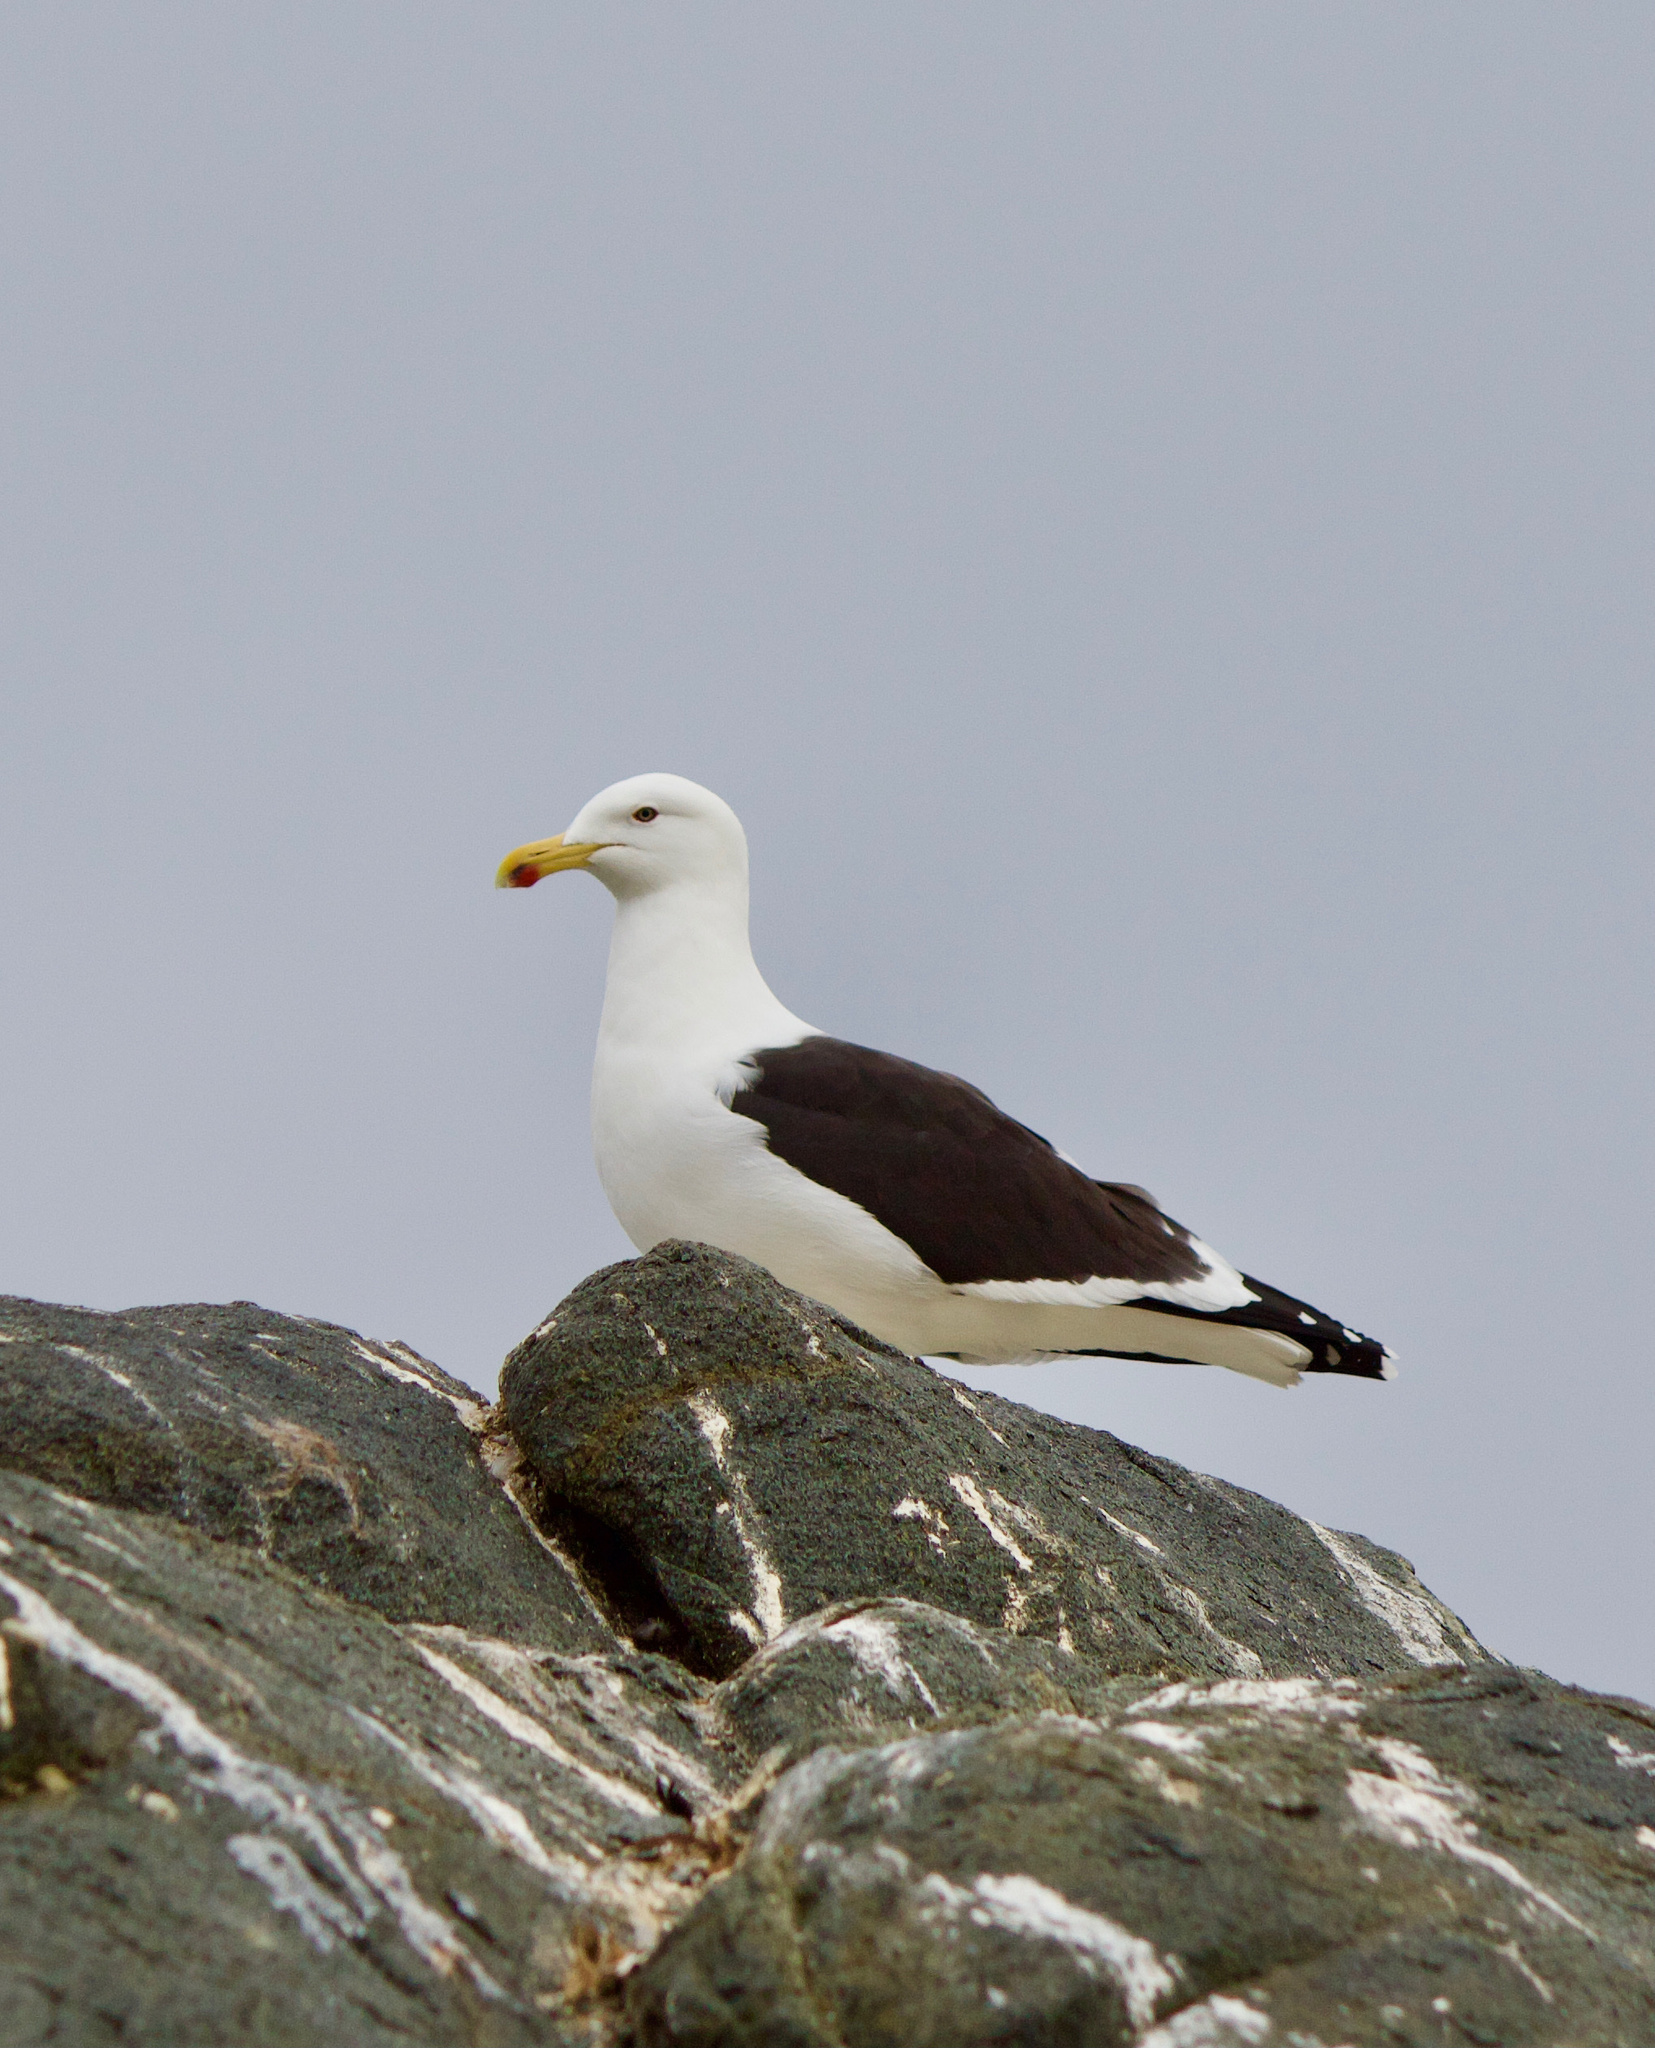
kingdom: Animalia
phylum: Chordata
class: Aves
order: Charadriiformes
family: Laridae
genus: Larus
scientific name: Larus dominicanus
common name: Kelp gull
